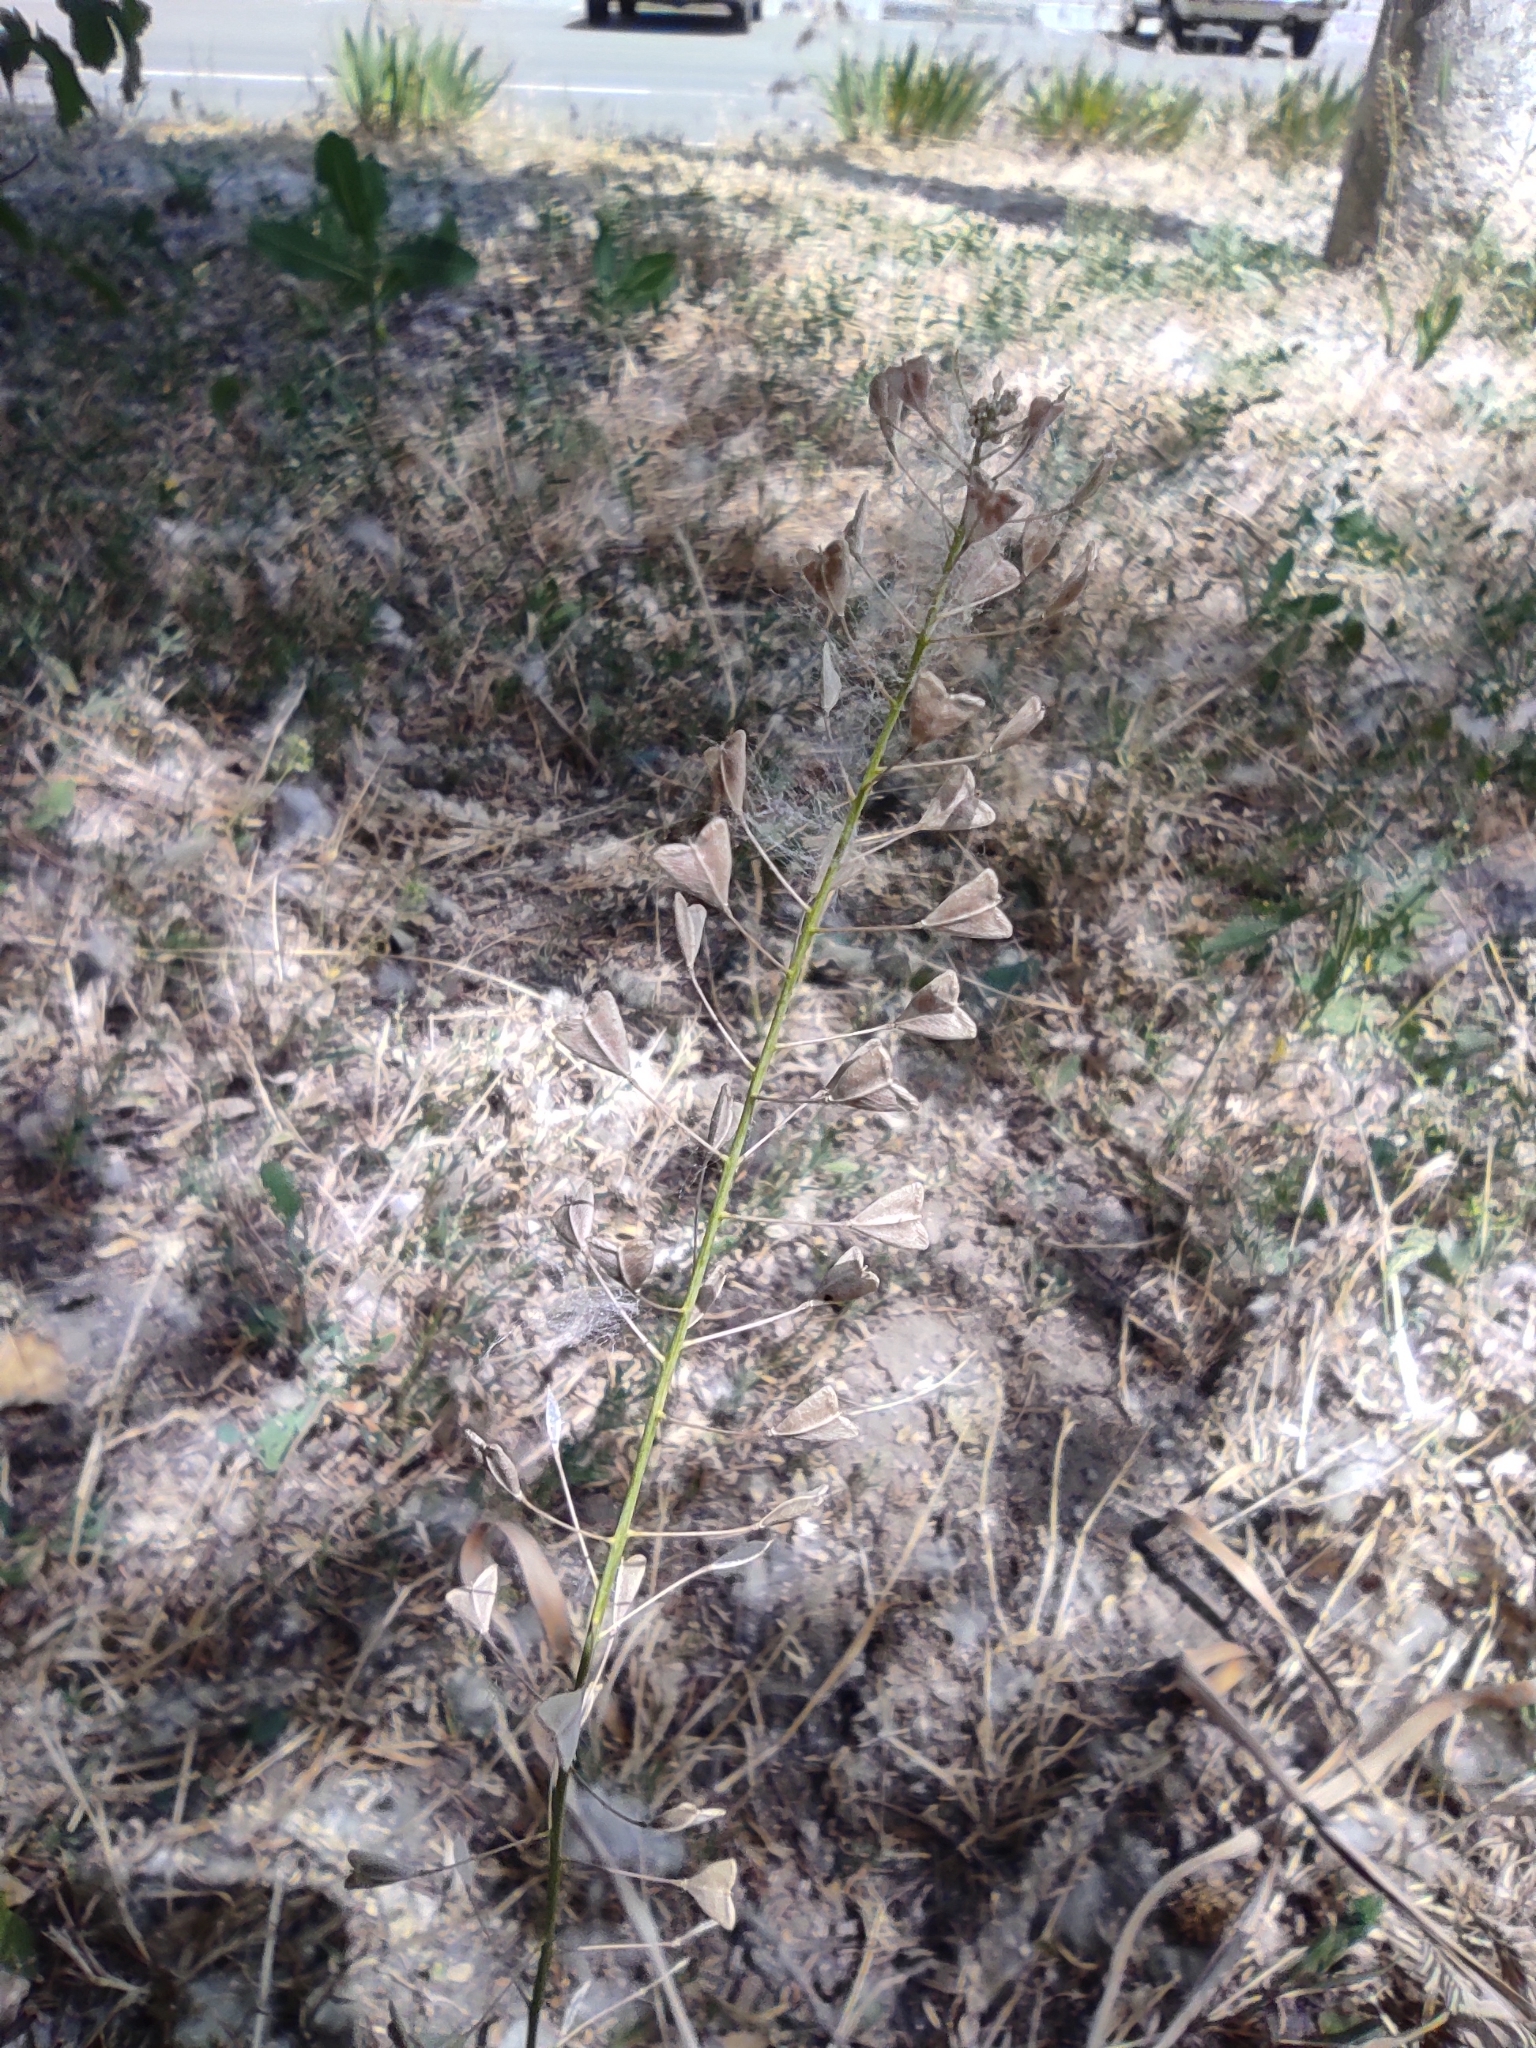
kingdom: Plantae
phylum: Tracheophyta
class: Magnoliopsida
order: Brassicales
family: Brassicaceae
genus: Capsella
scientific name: Capsella bursa-pastoris
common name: Shepherd's purse
